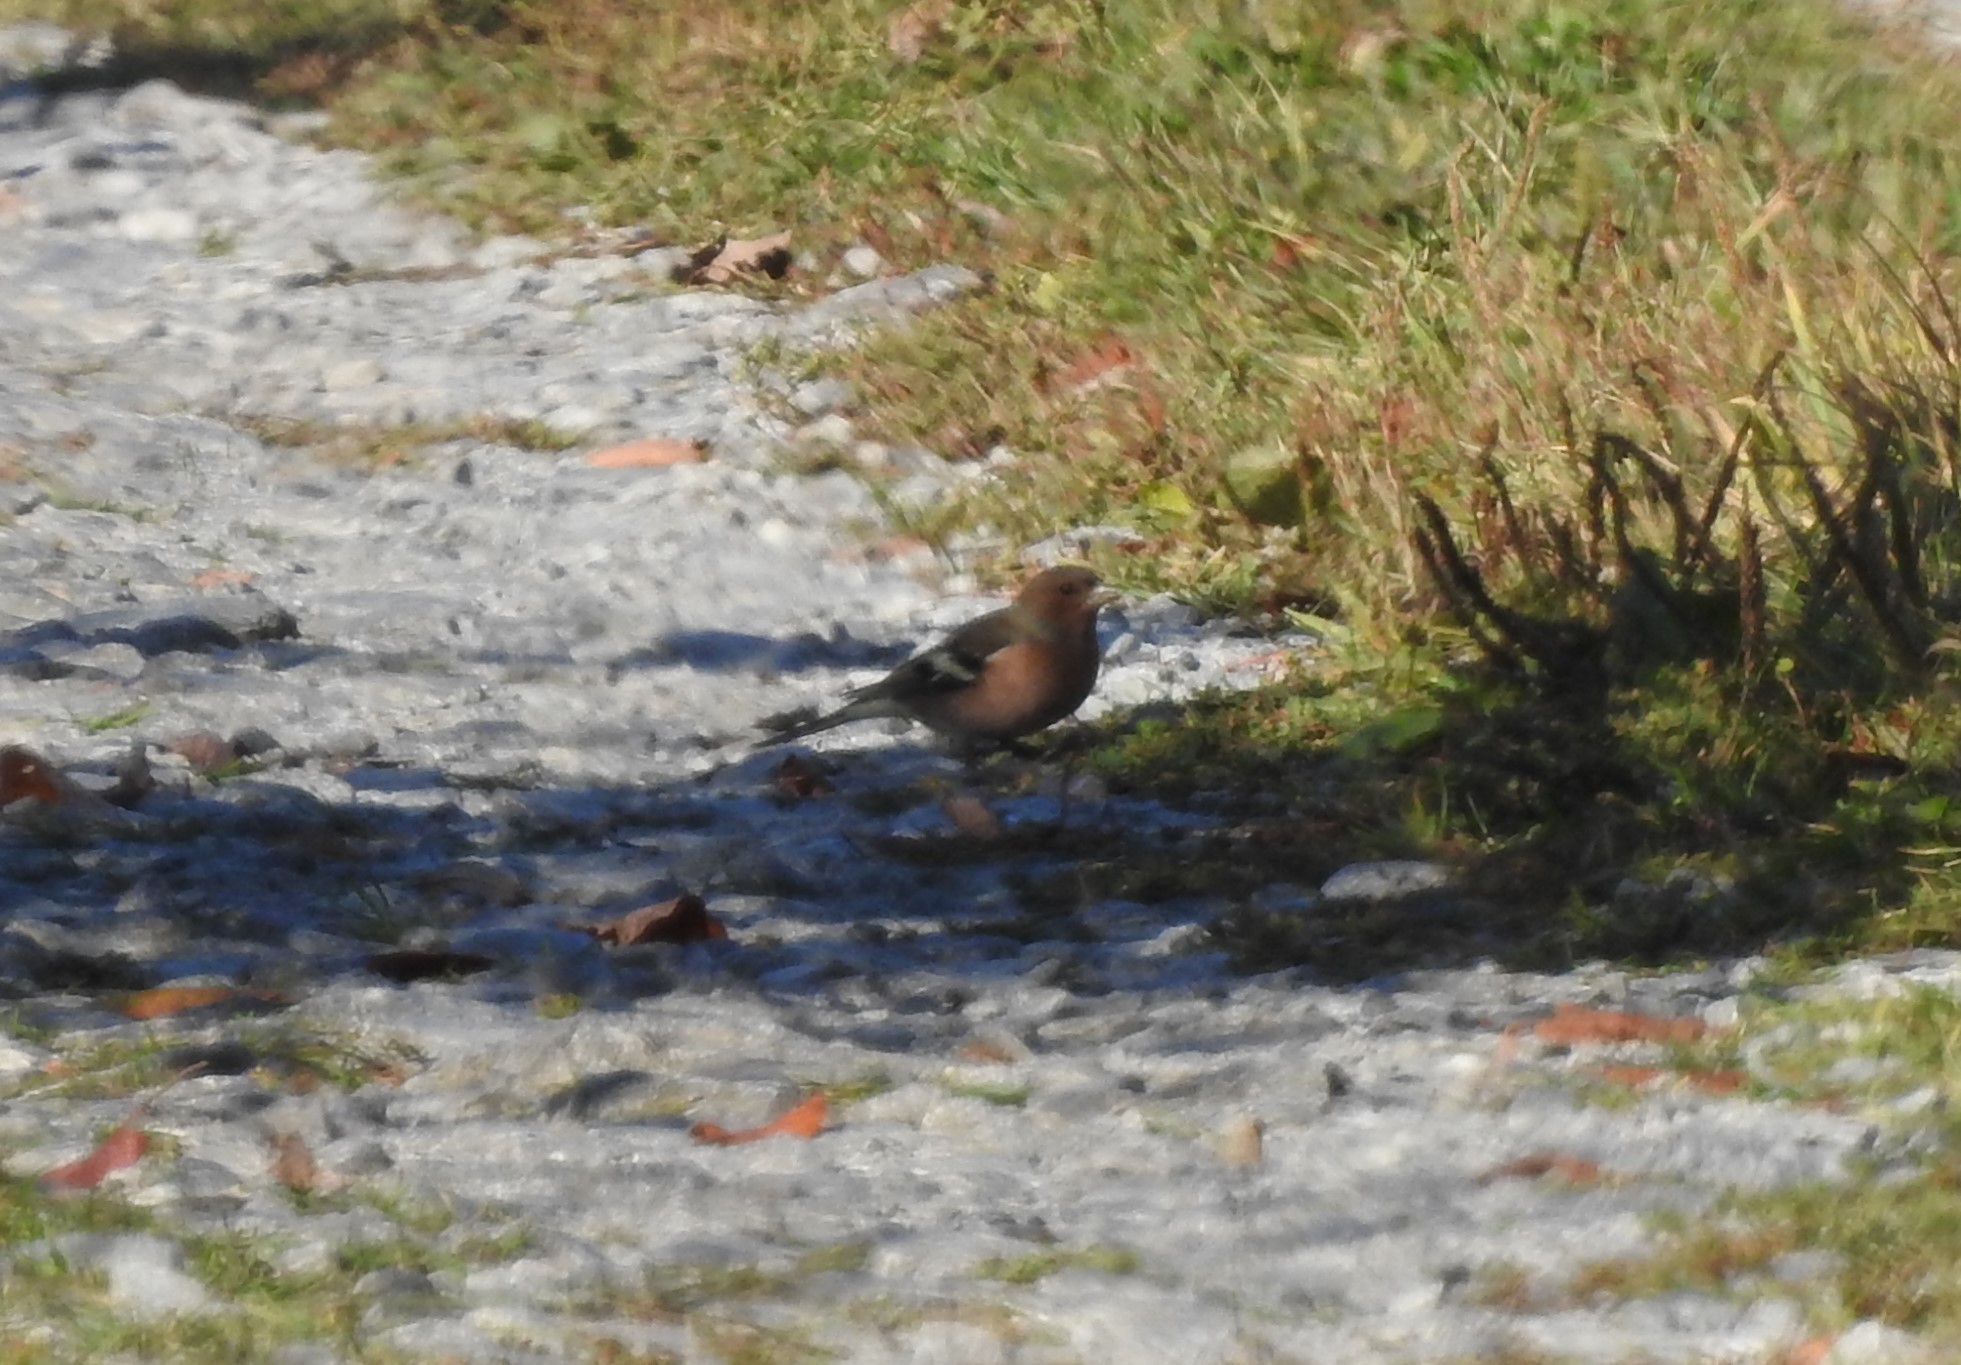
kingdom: Animalia
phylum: Chordata
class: Aves
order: Passeriformes
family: Fringillidae
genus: Fringilla
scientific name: Fringilla coelebs
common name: Common chaffinch
